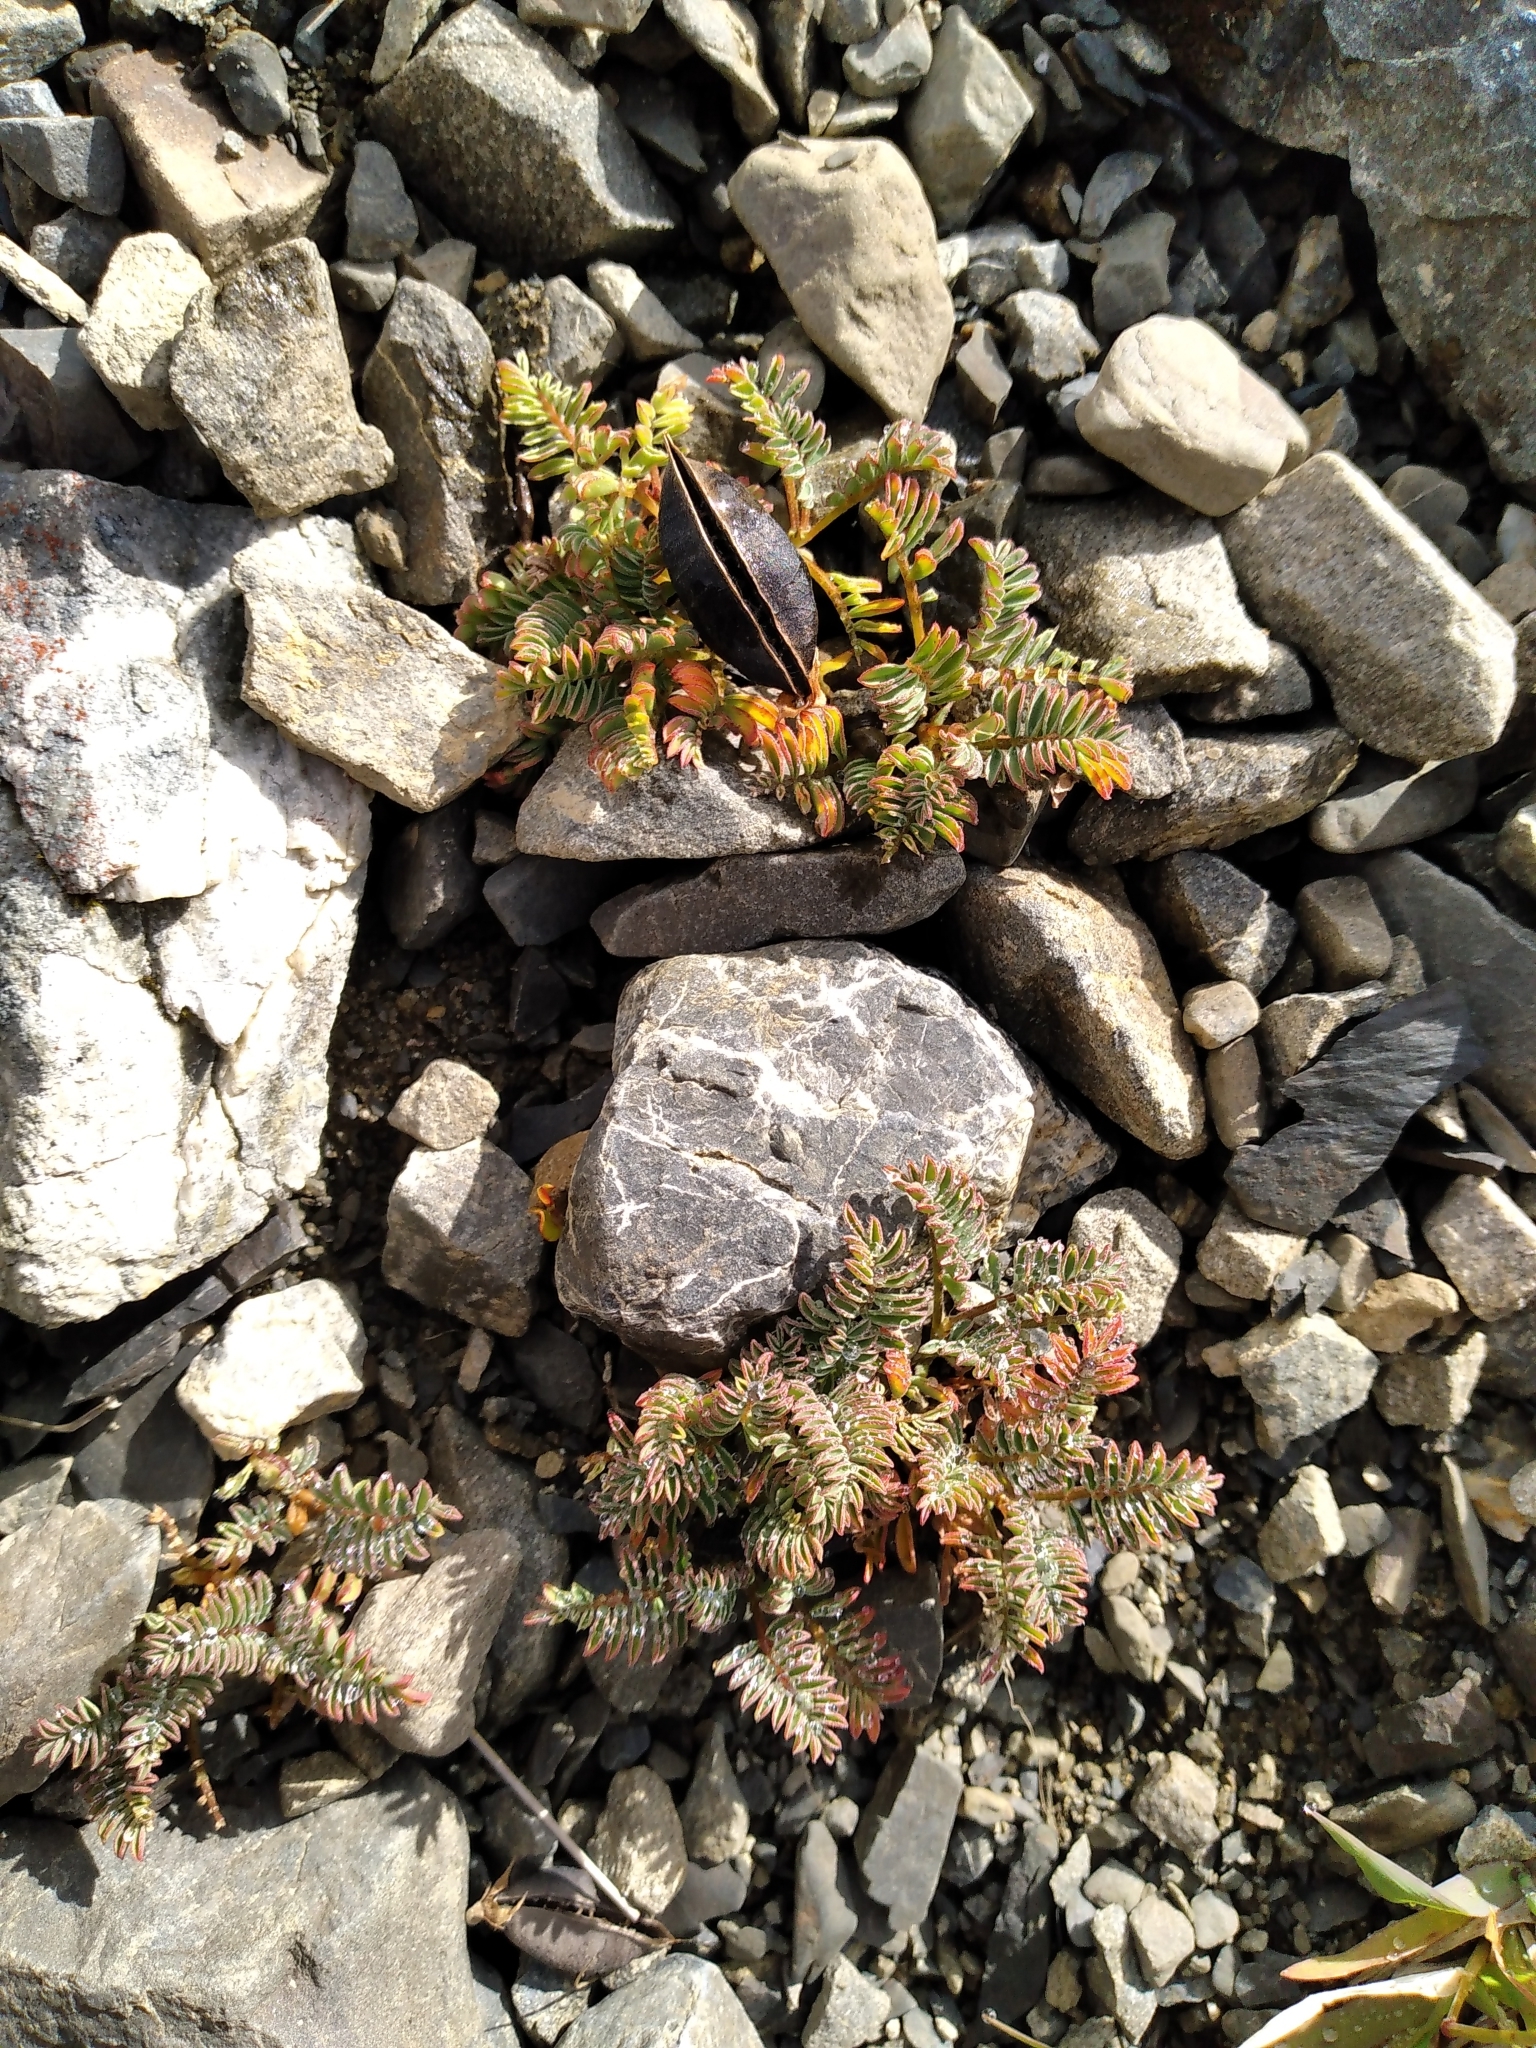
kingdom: Plantae
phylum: Tracheophyta
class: Magnoliopsida
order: Fabales
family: Fabaceae
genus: Montigena
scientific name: Montigena novae-zelandiae
